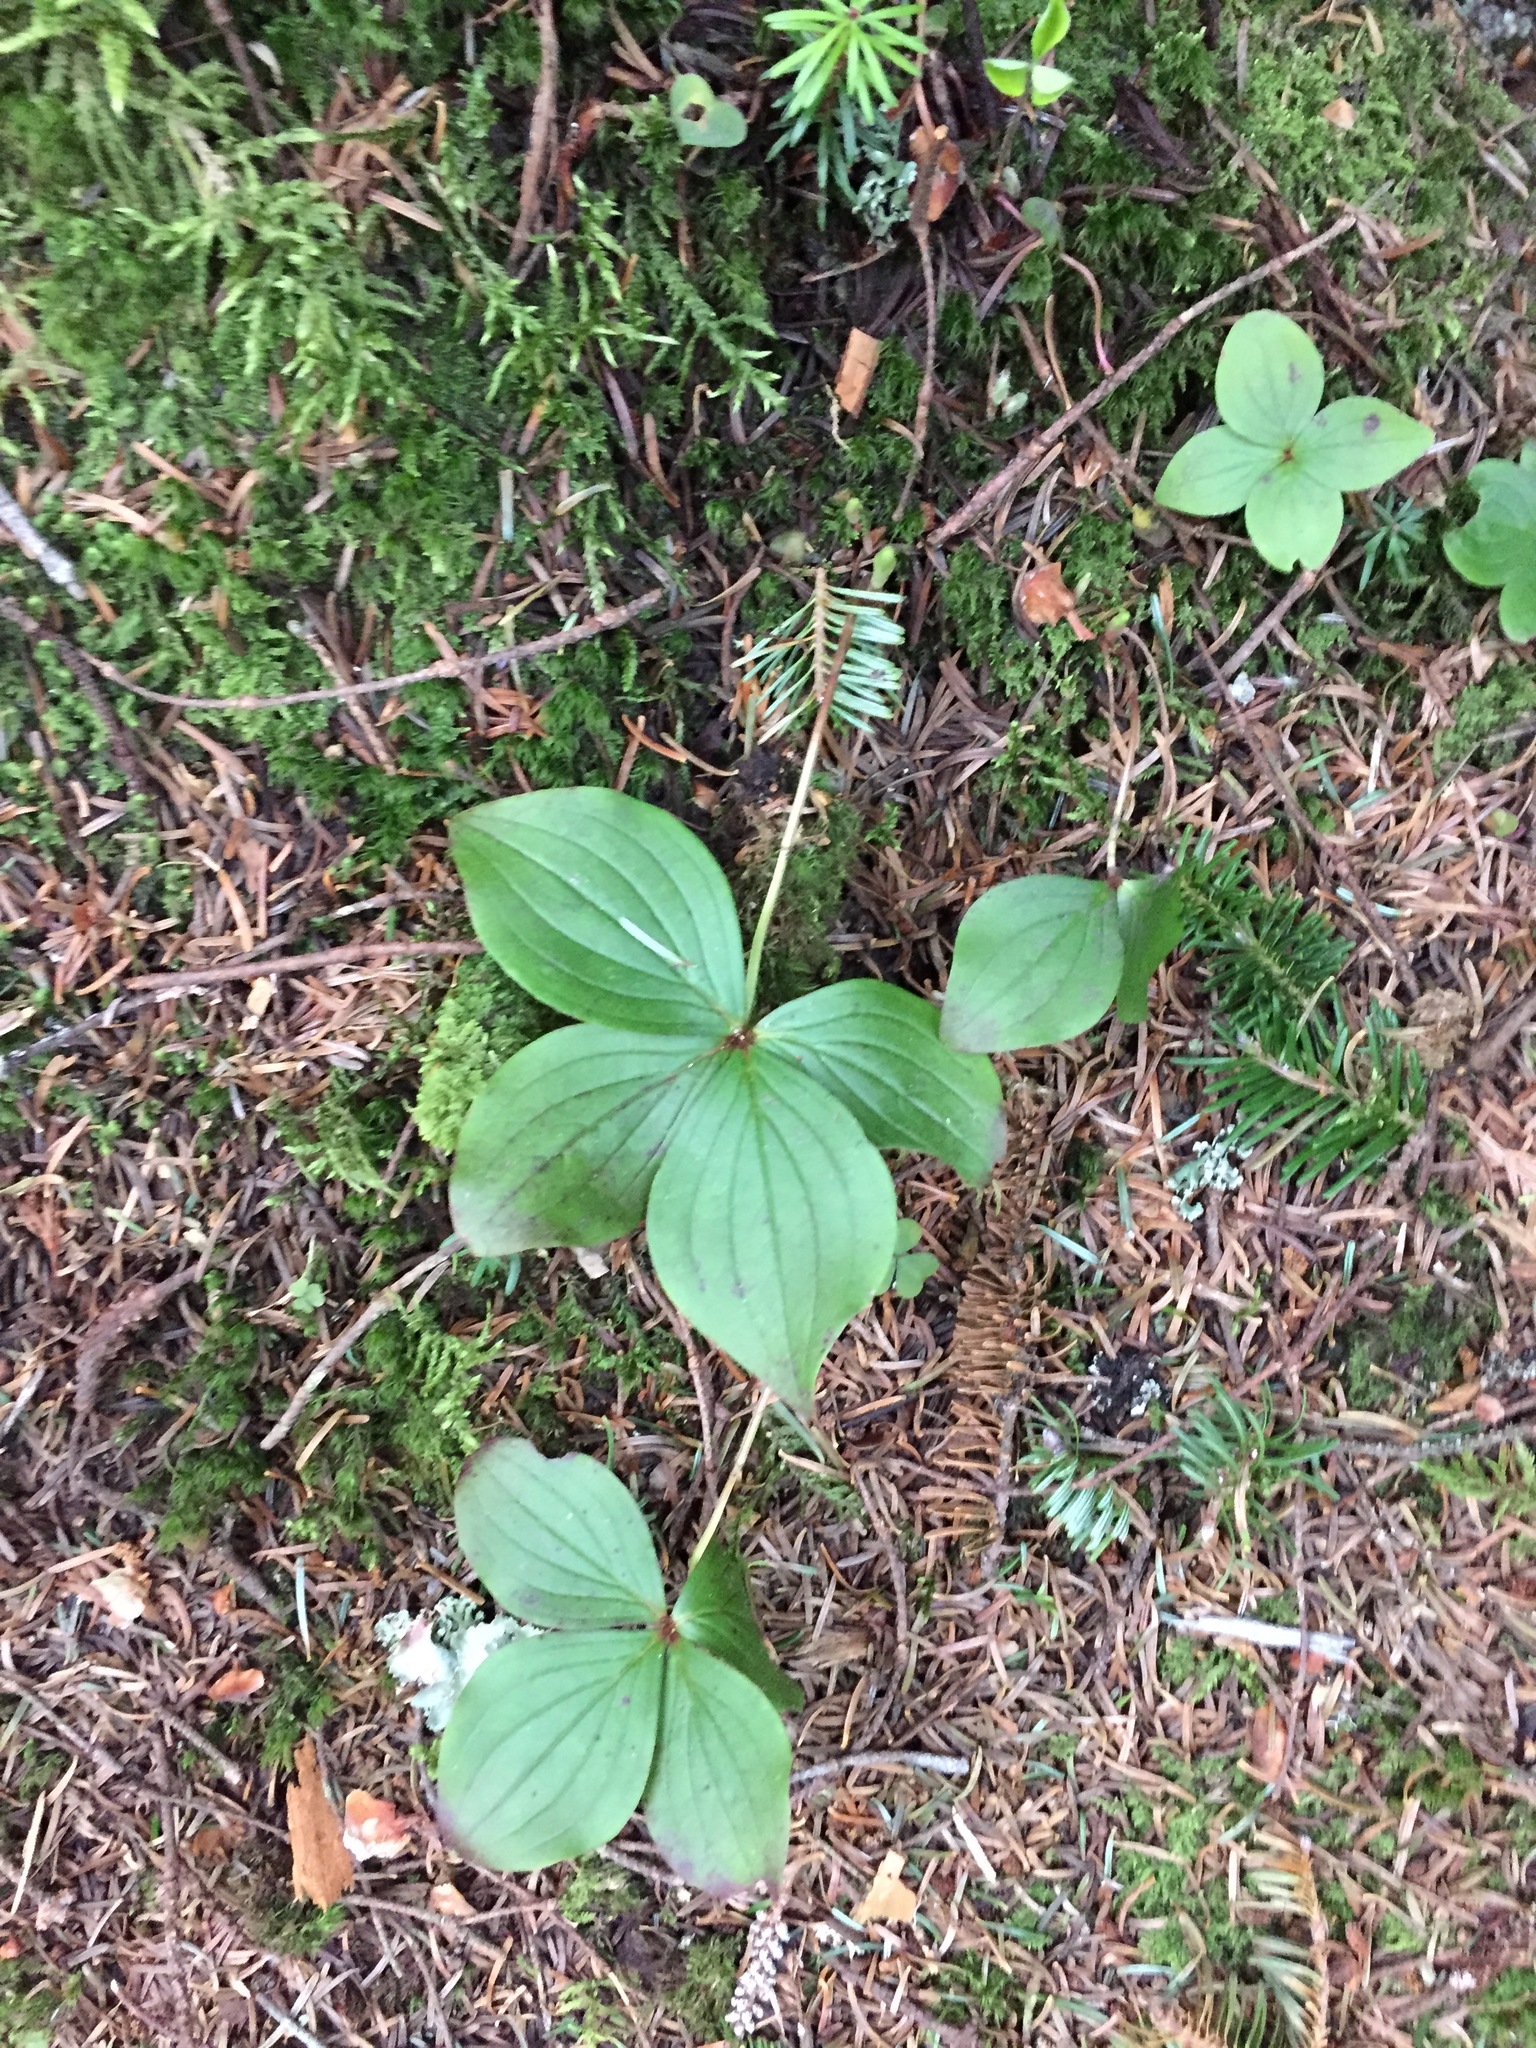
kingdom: Plantae
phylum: Tracheophyta
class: Magnoliopsida
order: Cornales
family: Cornaceae
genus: Cornus
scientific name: Cornus canadensis
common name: Creeping dogwood
